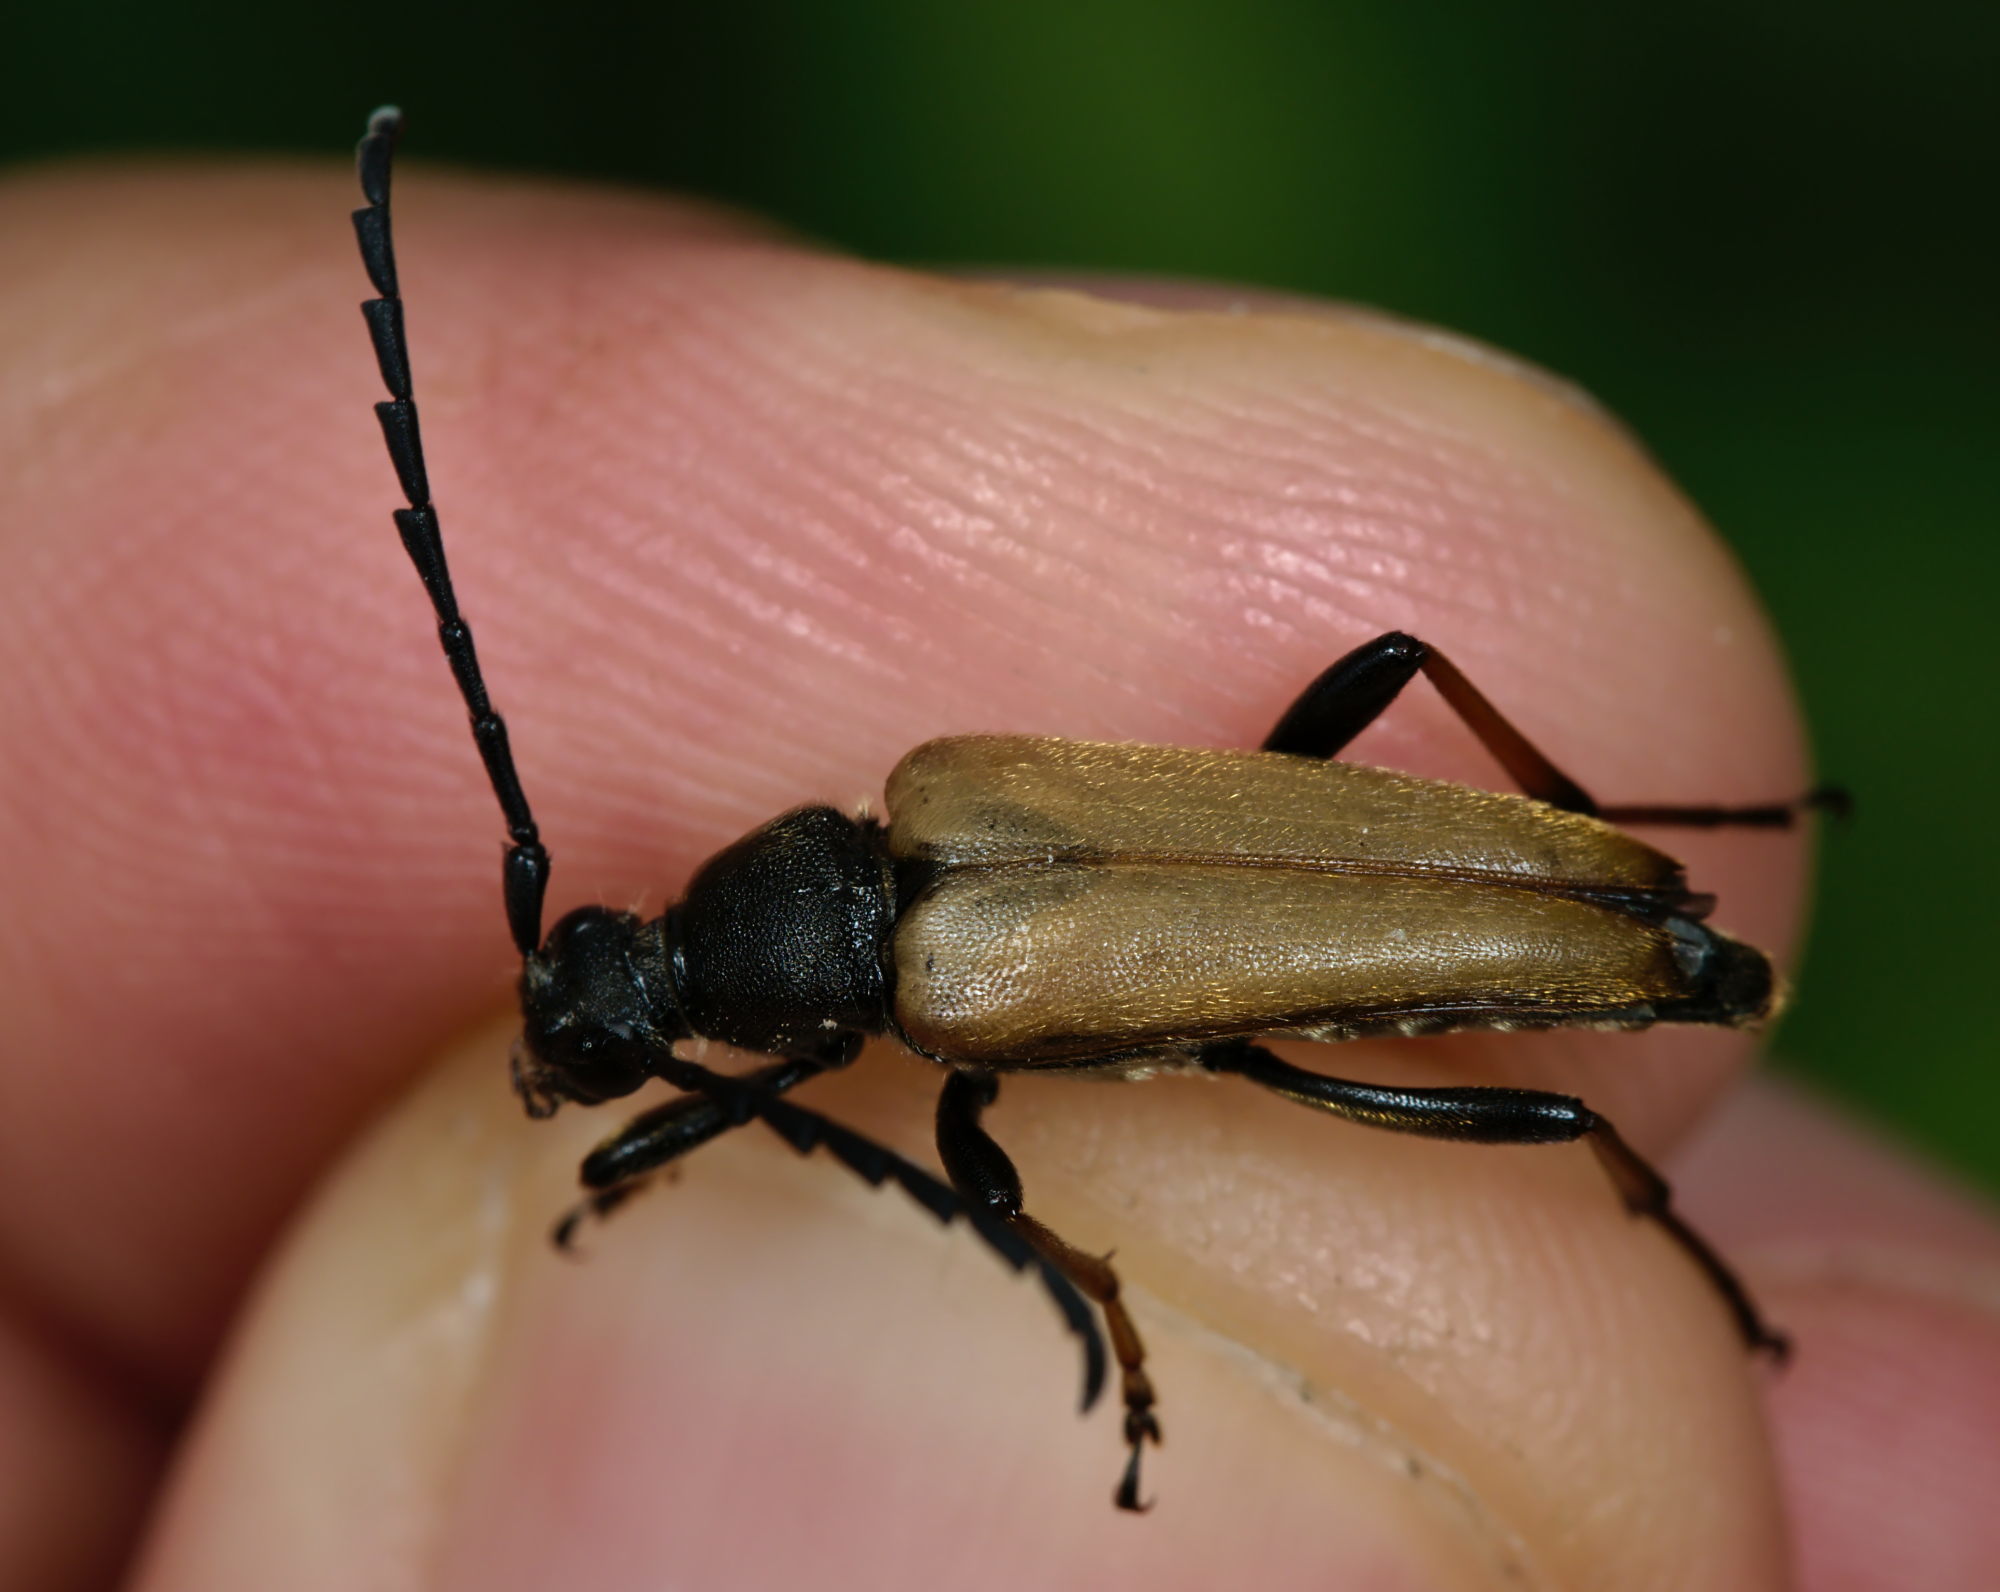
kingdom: Animalia
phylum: Arthropoda
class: Insecta
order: Coleoptera
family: Cerambycidae
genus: Stictoleptura
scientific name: Stictoleptura rubra
